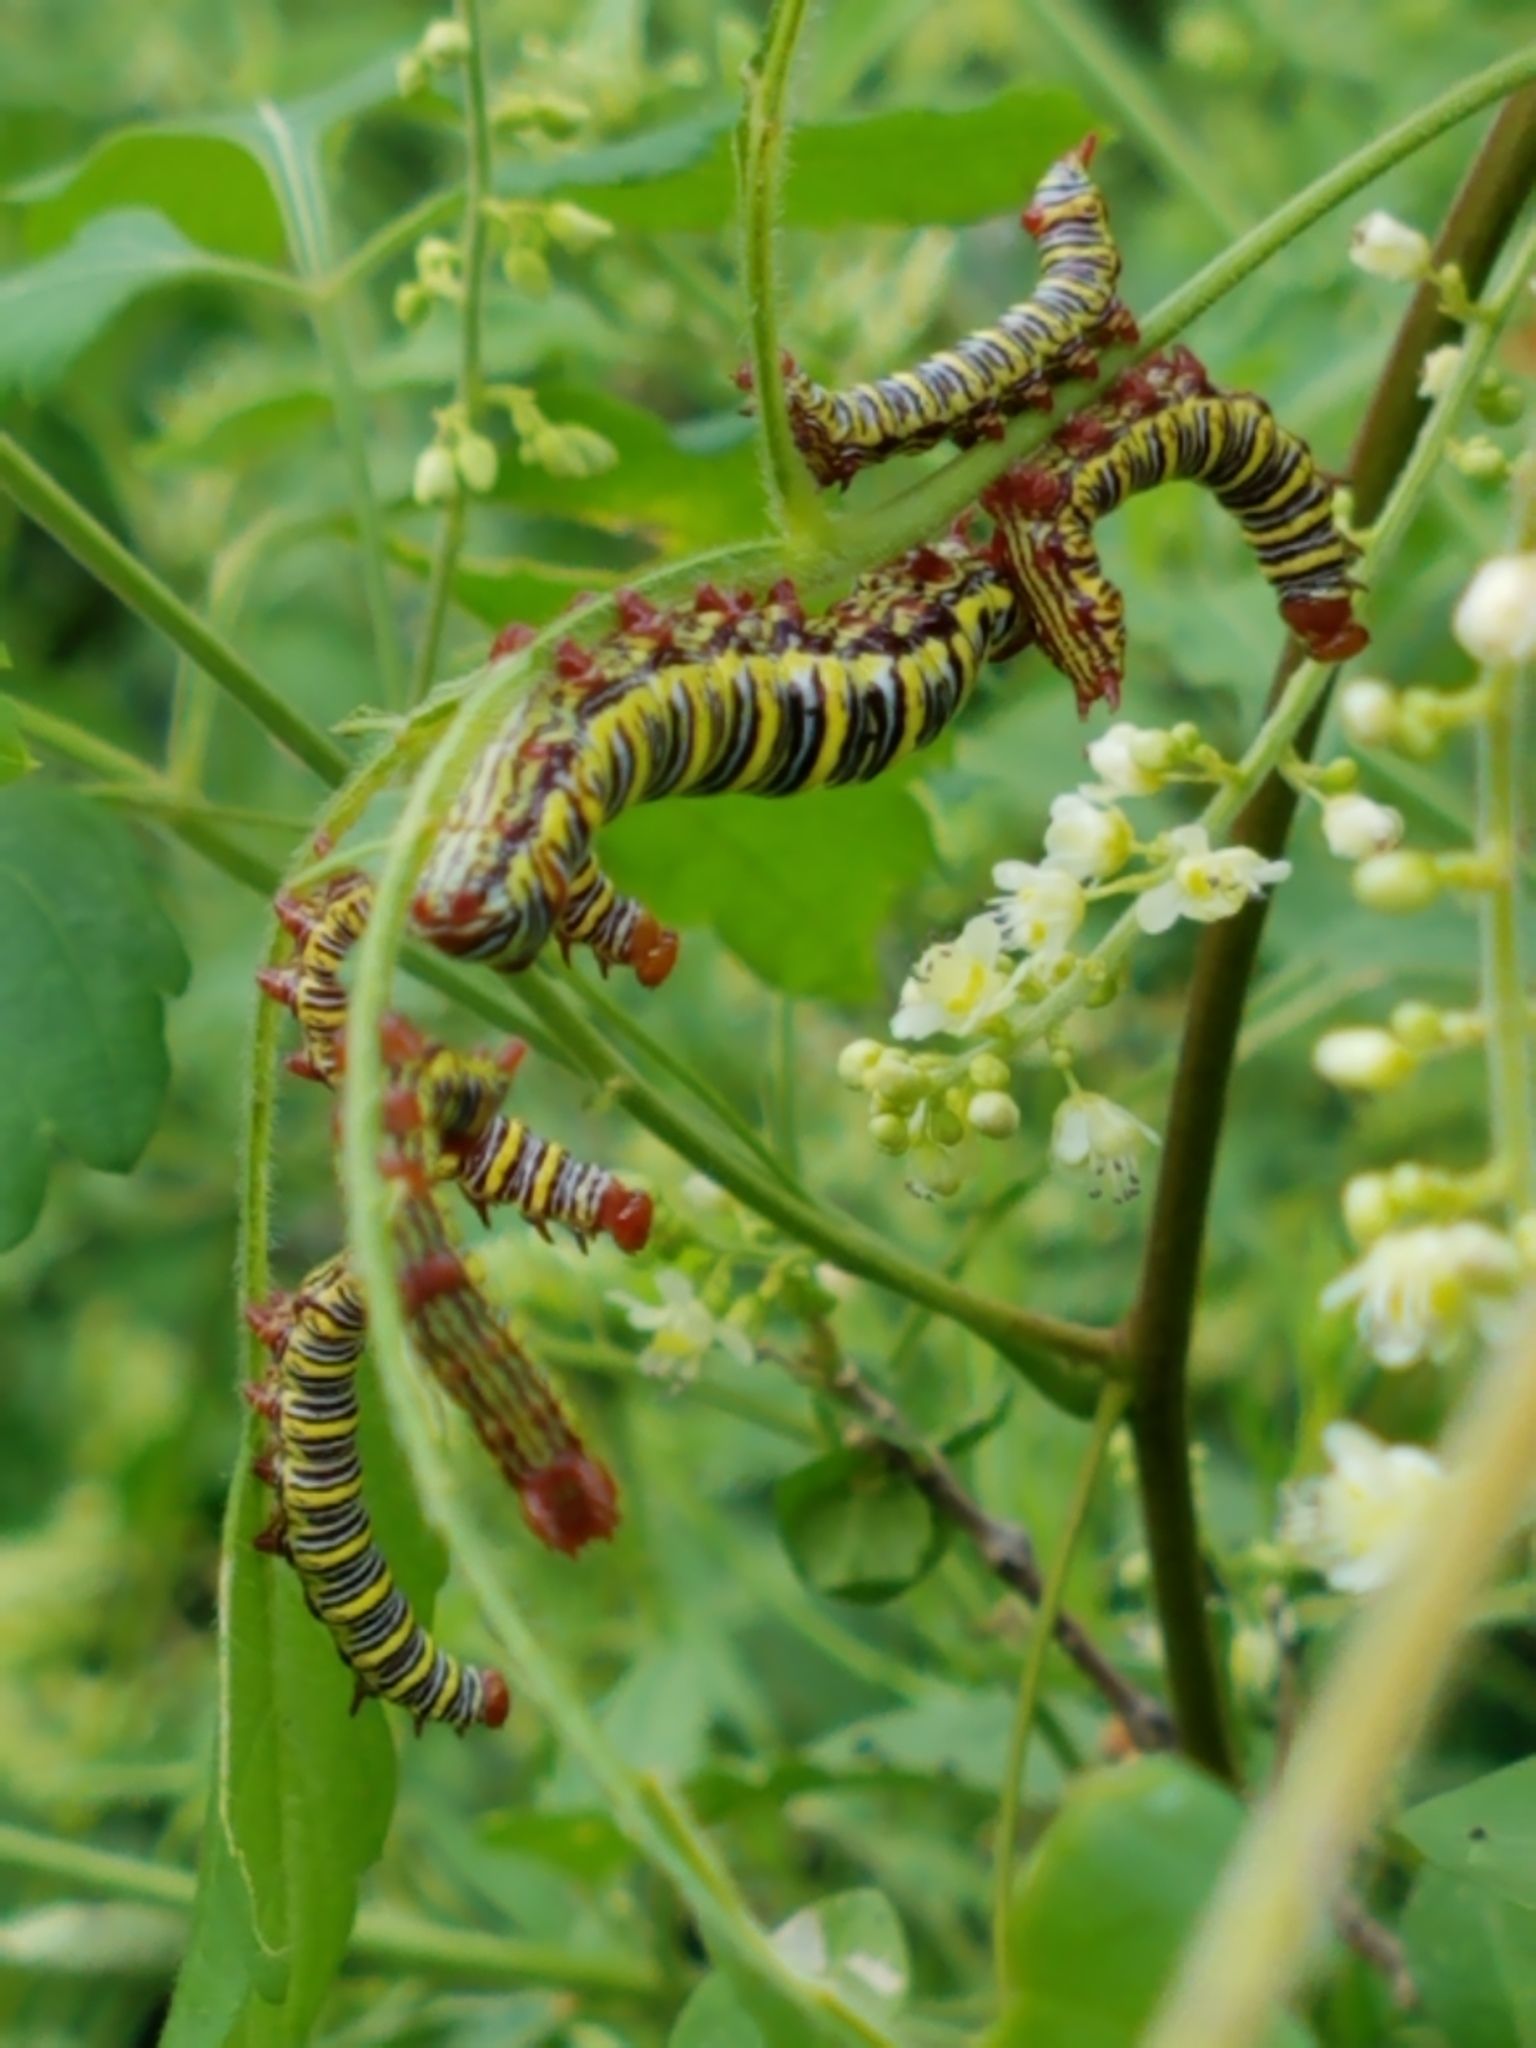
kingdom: Animalia
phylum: Arthropoda
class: Insecta
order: Lepidoptera
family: Notodontidae
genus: Didugua
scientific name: Didugua argentilinea
